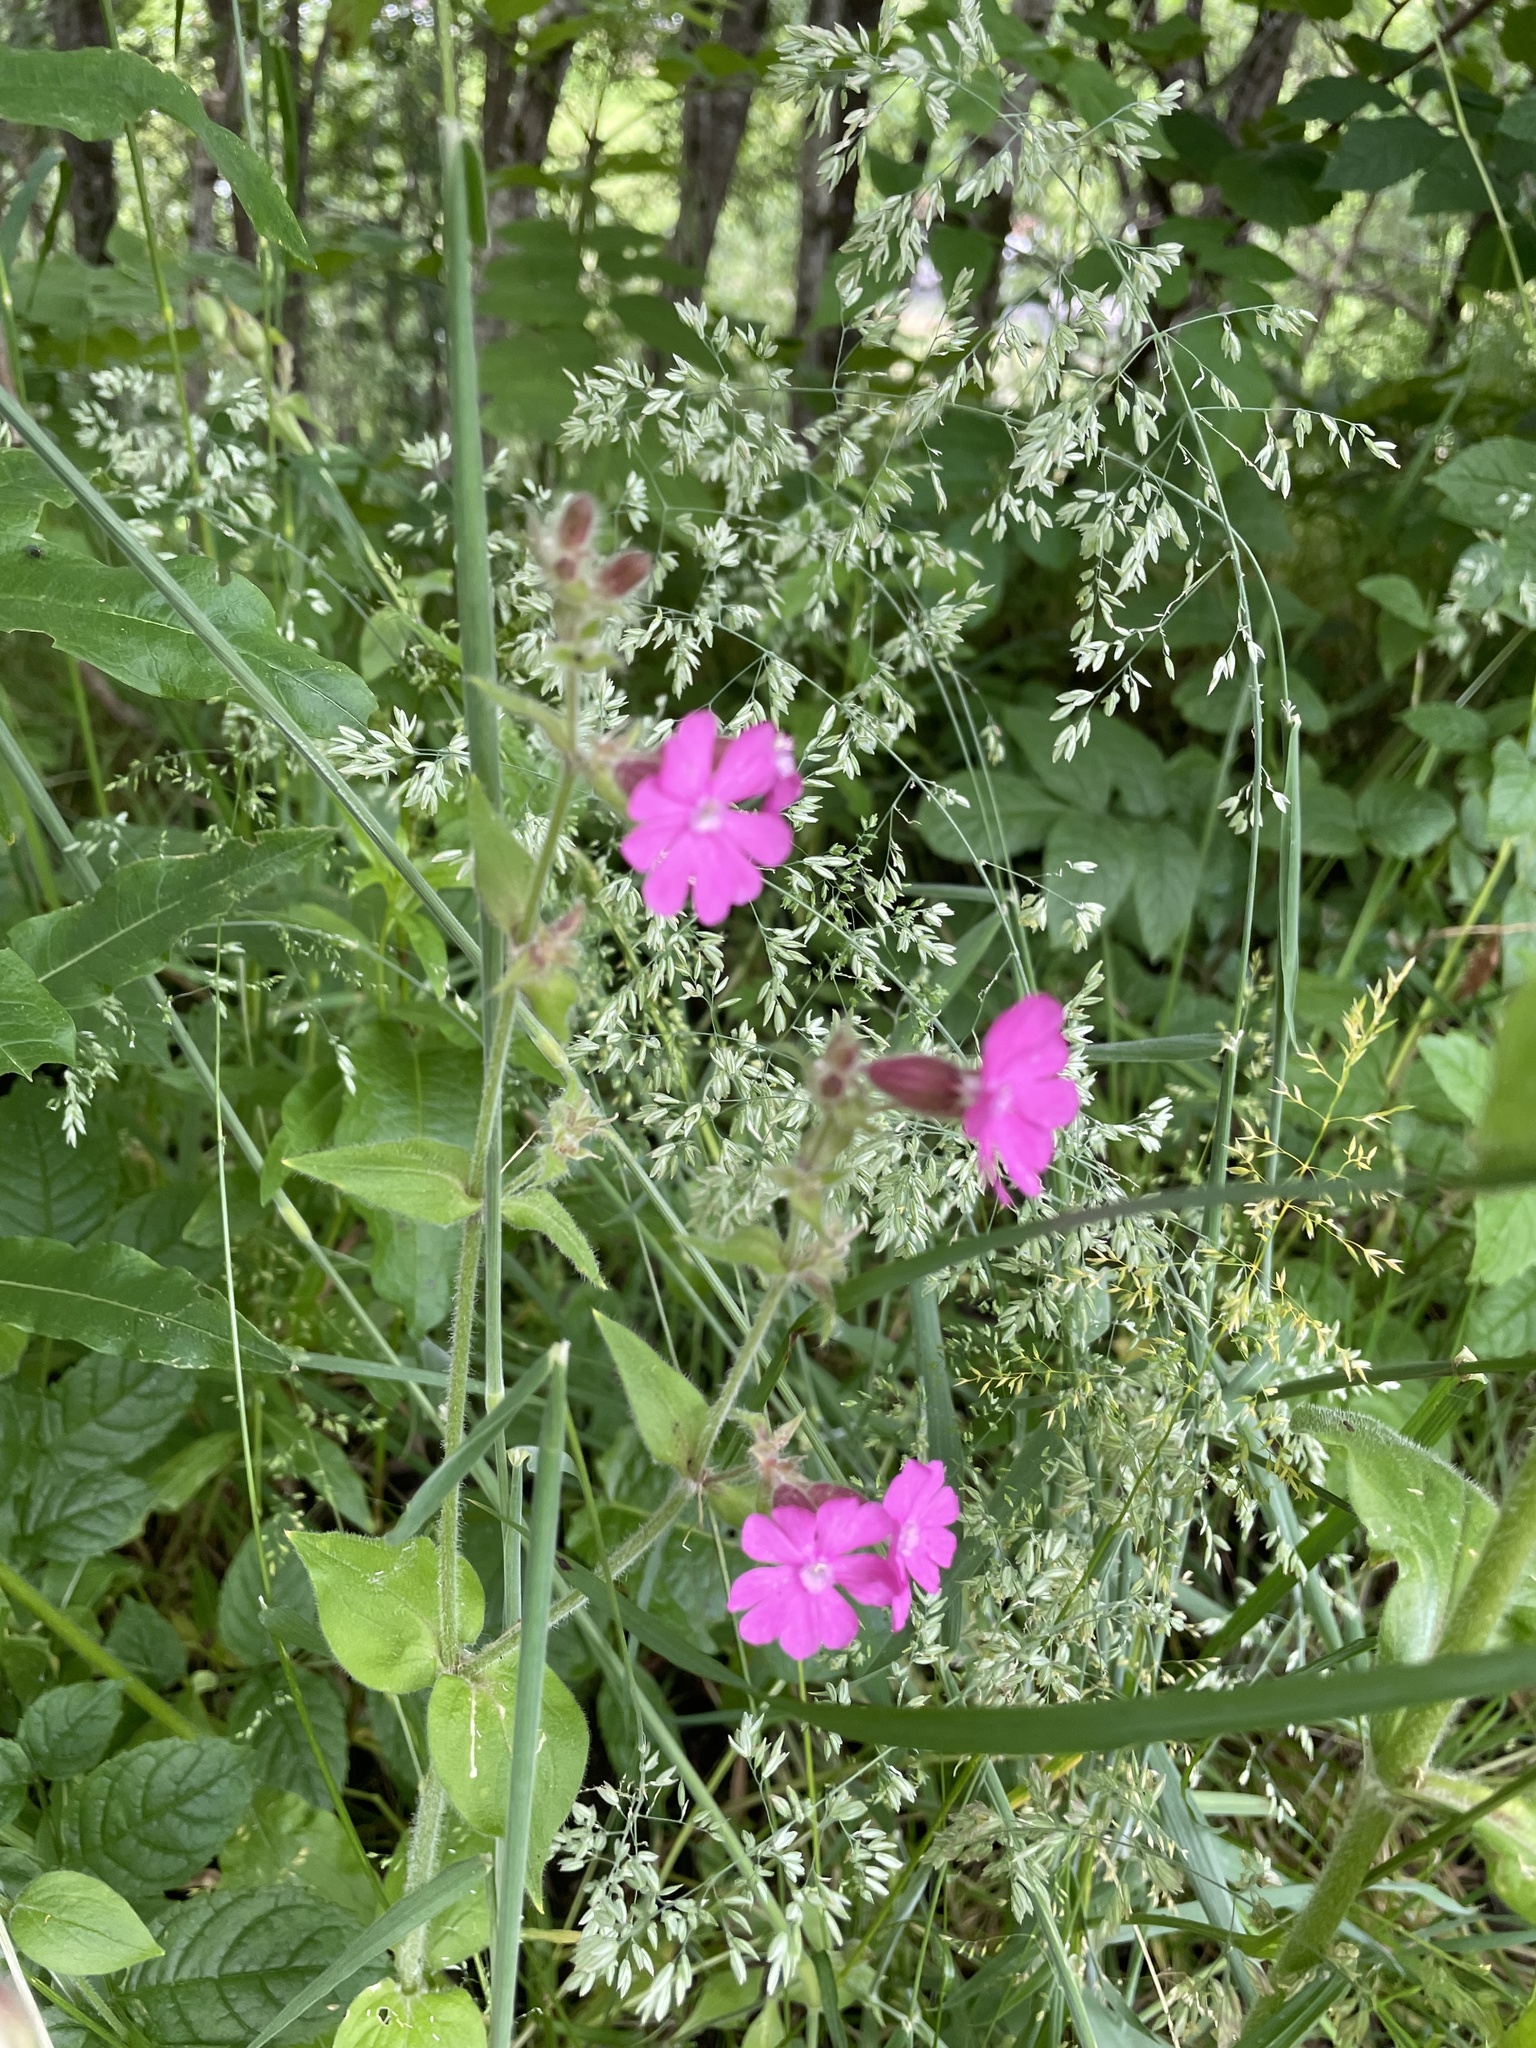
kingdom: Plantae
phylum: Tracheophyta
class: Magnoliopsida
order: Caryophyllales
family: Caryophyllaceae
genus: Silene
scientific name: Silene dioica
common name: Red campion
